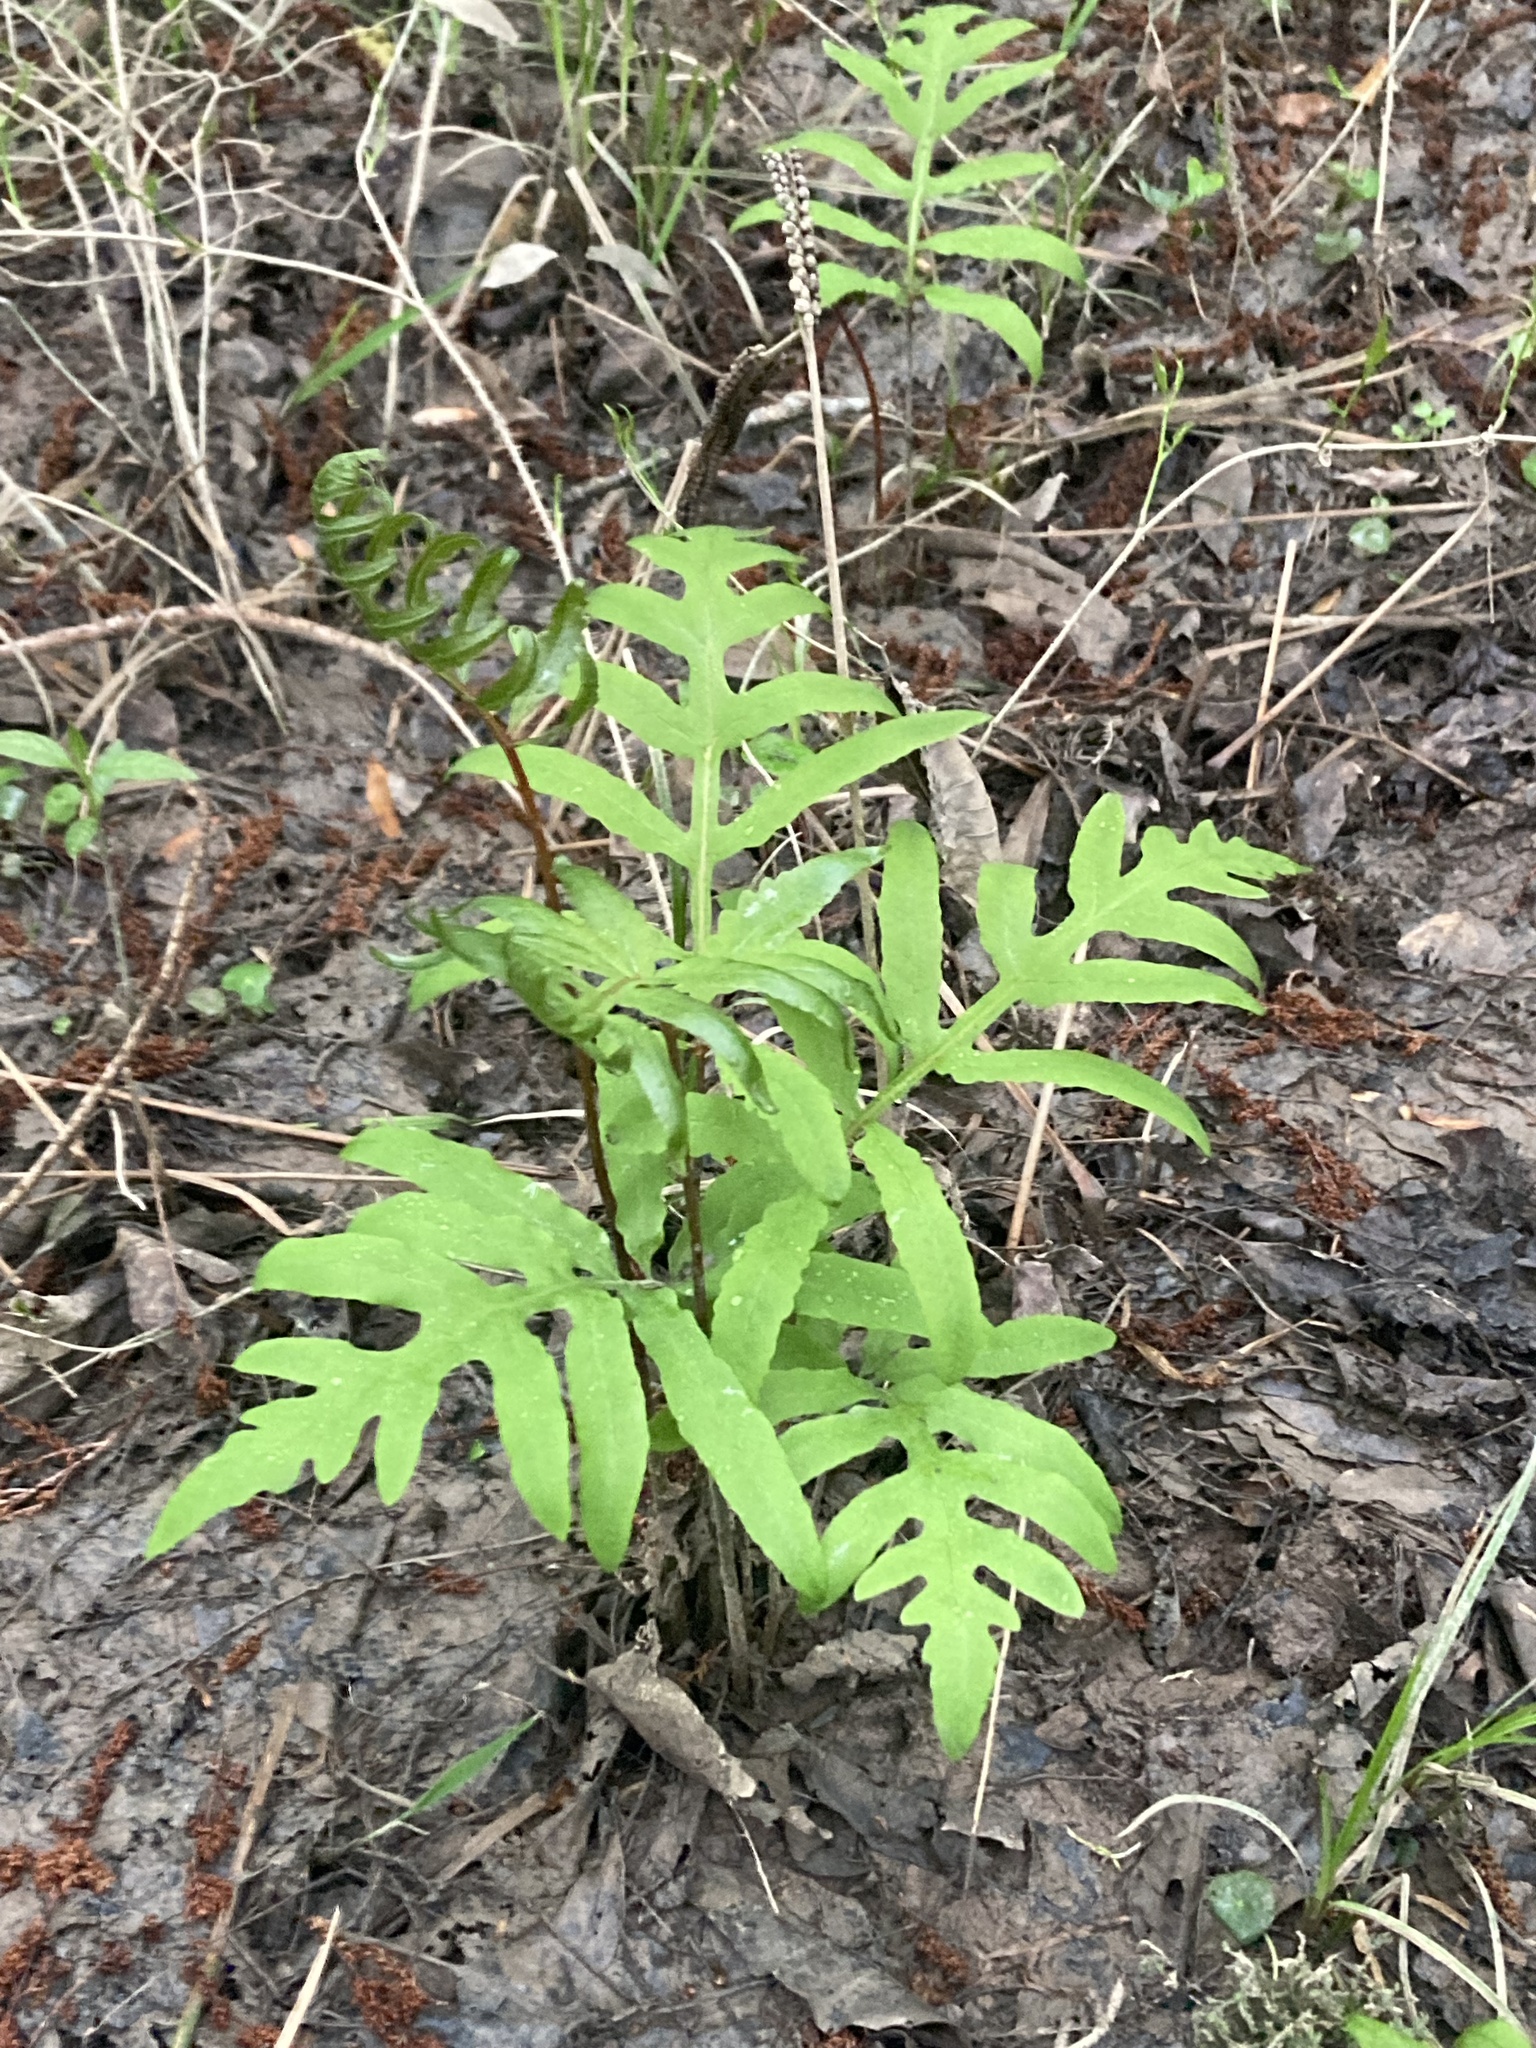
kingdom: Plantae
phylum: Tracheophyta
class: Polypodiopsida
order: Polypodiales
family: Onocleaceae
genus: Onoclea
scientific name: Onoclea sensibilis
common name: Sensitive fern
